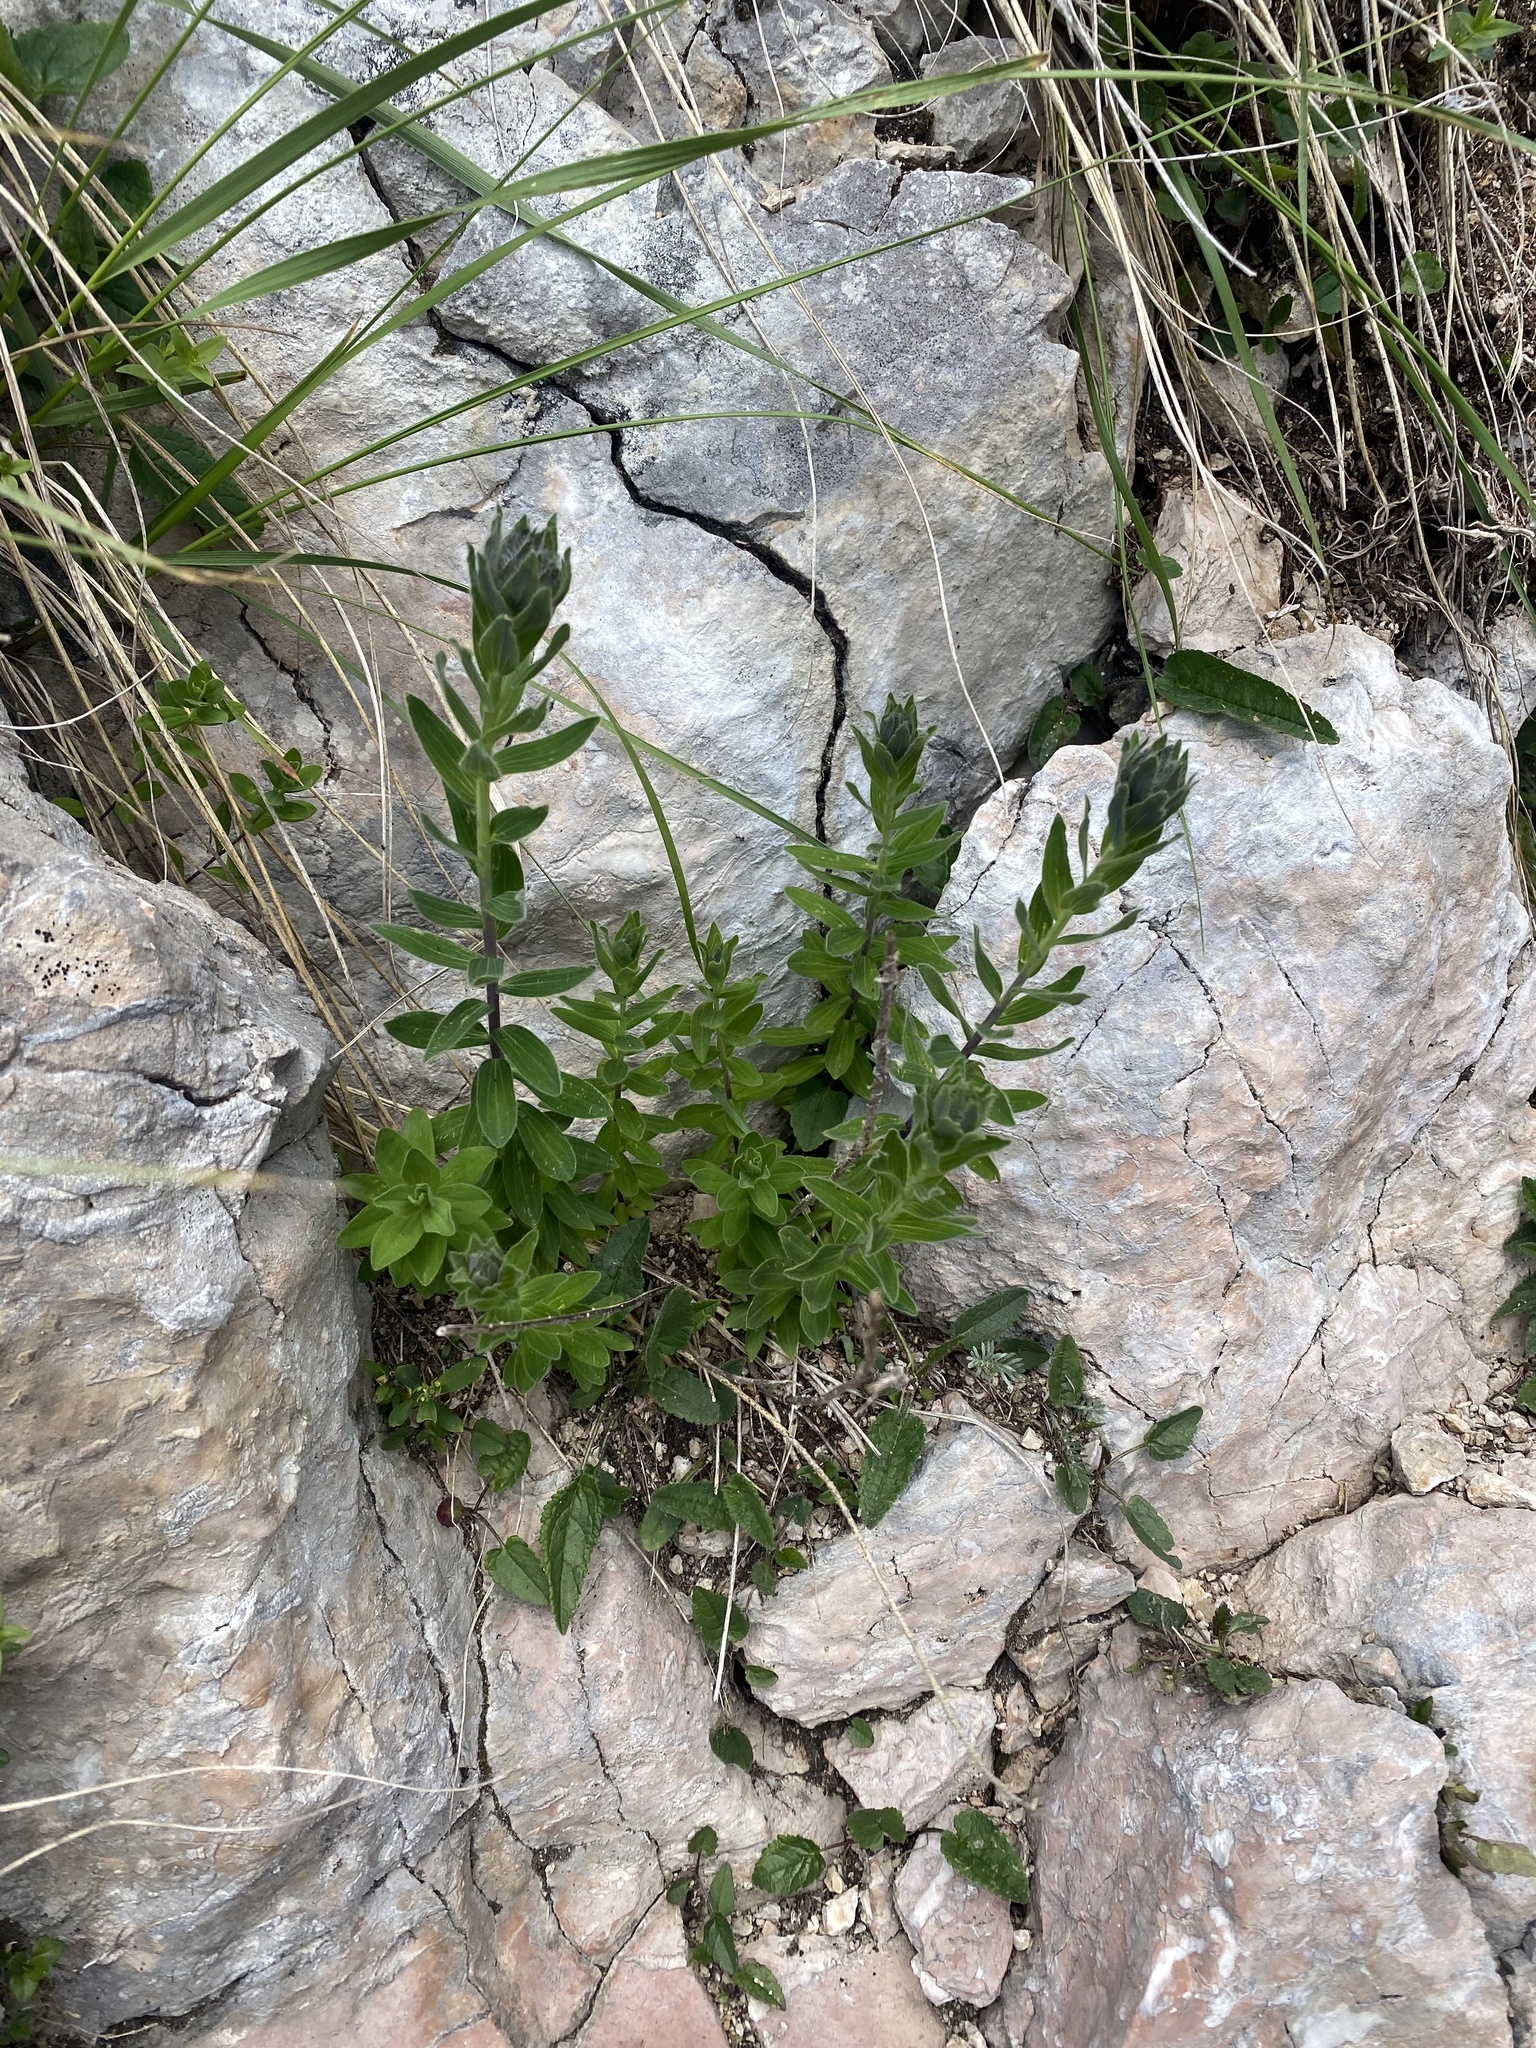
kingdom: Plantae
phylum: Tracheophyta
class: Magnoliopsida
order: Malpighiales
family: Linaceae
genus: Linum
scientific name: Linum hypericifolium
